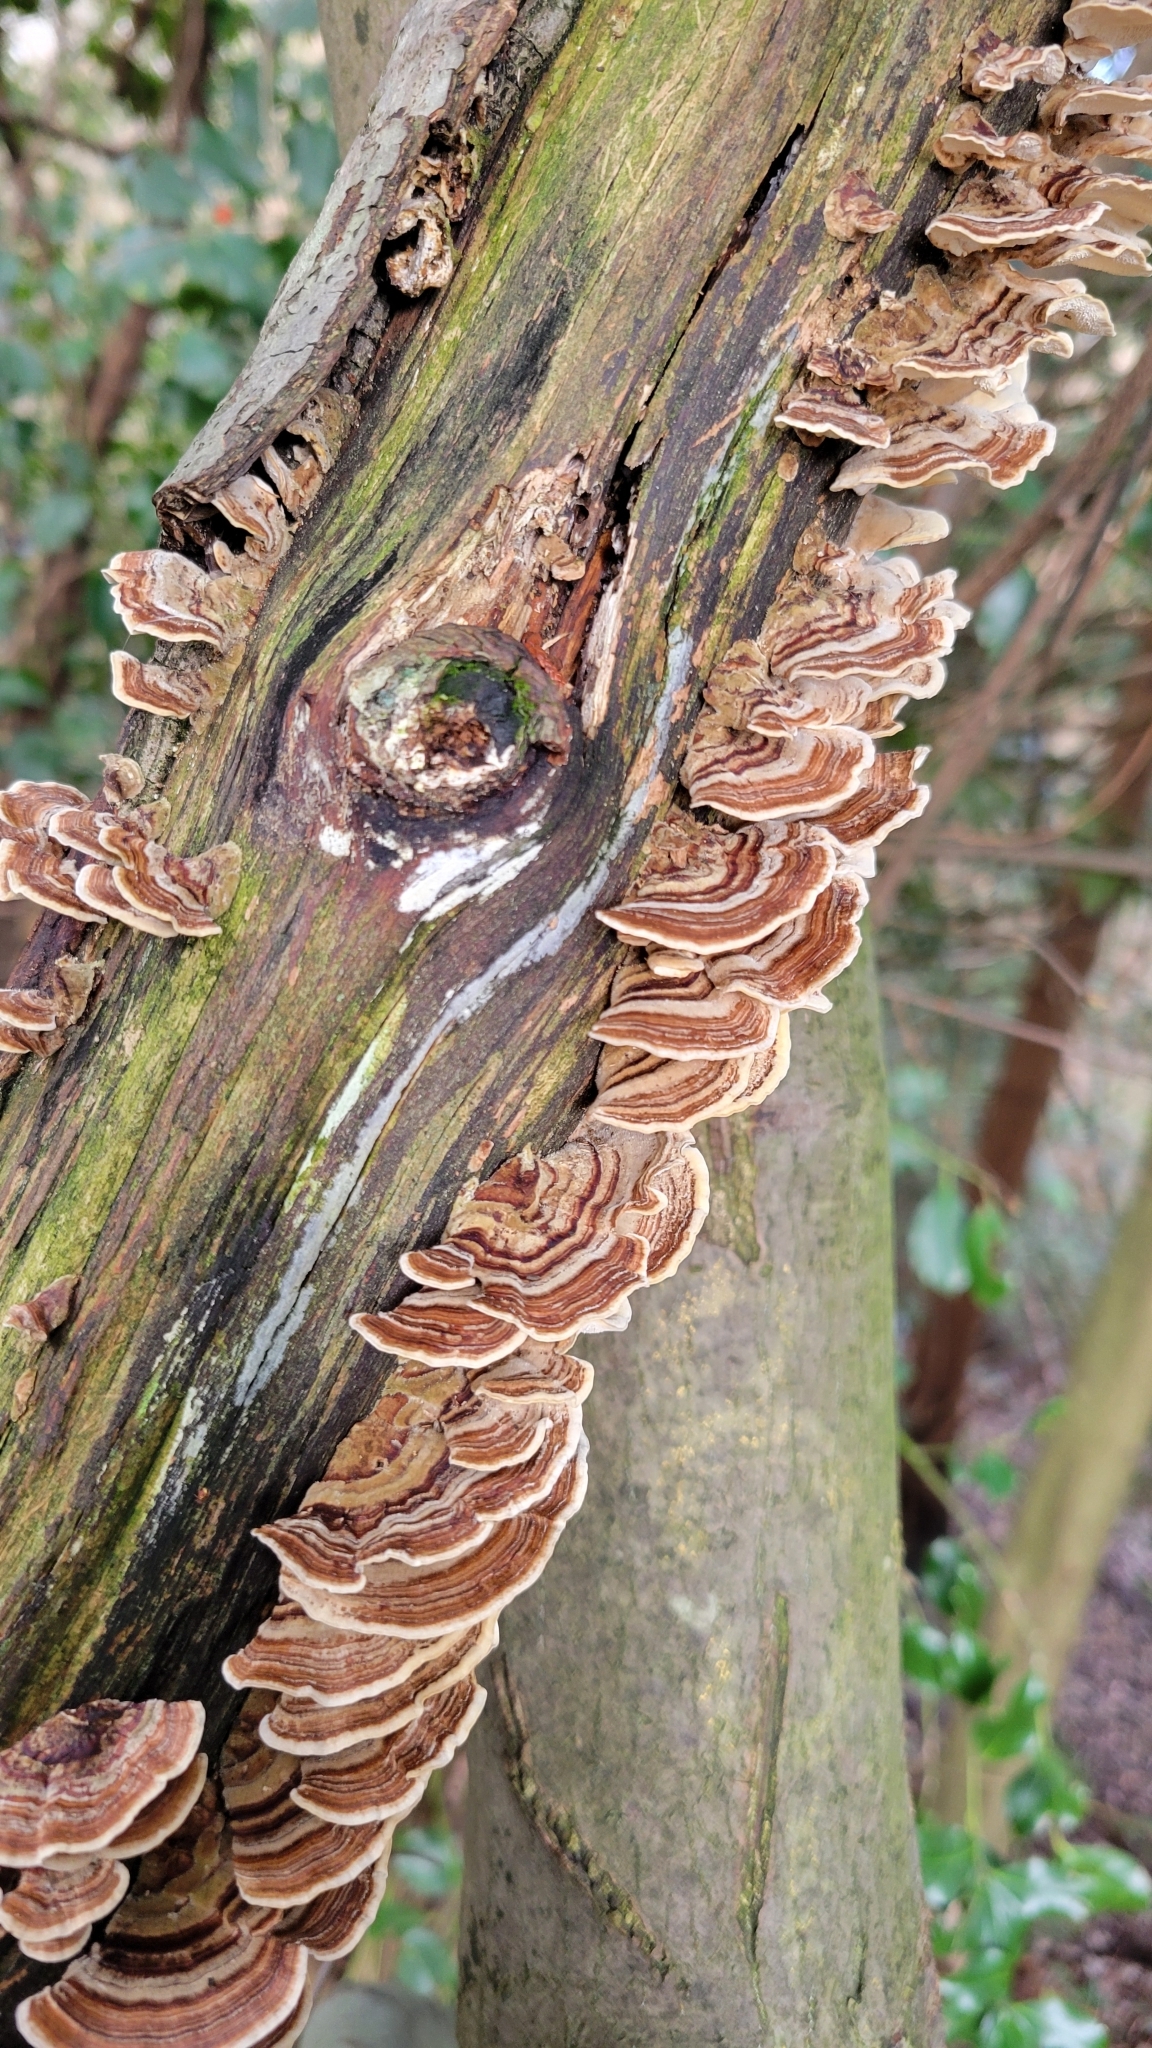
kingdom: Fungi
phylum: Basidiomycota
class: Agaricomycetes
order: Polyporales
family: Polyporaceae
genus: Trametes
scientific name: Trametes versicolor
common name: Turkeytail
